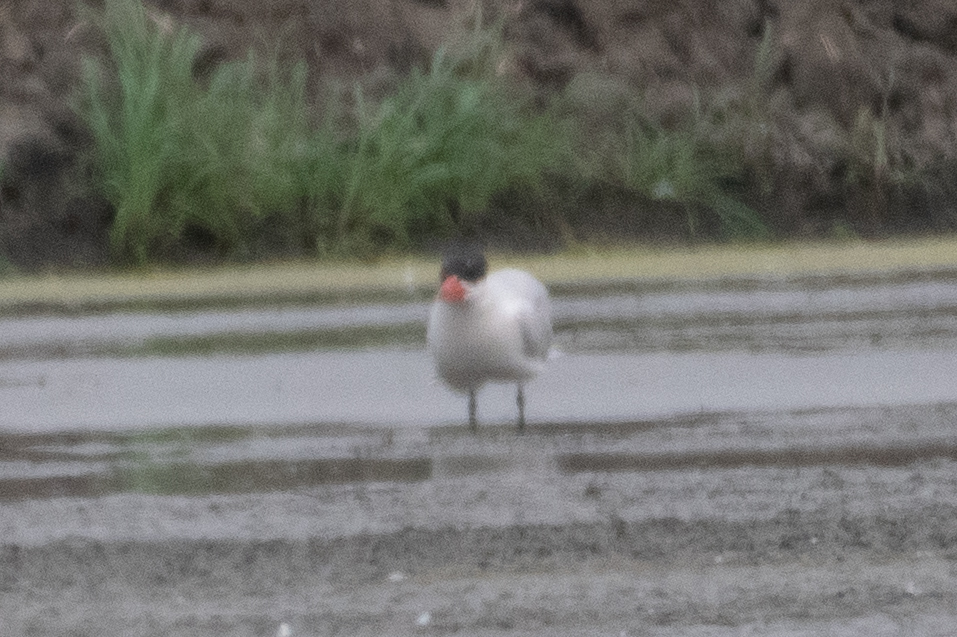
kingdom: Animalia
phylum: Chordata
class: Aves
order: Charadriiformes
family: Laridae
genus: Hydroprogne
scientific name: Hydroprogne caspia
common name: Caspian tern
